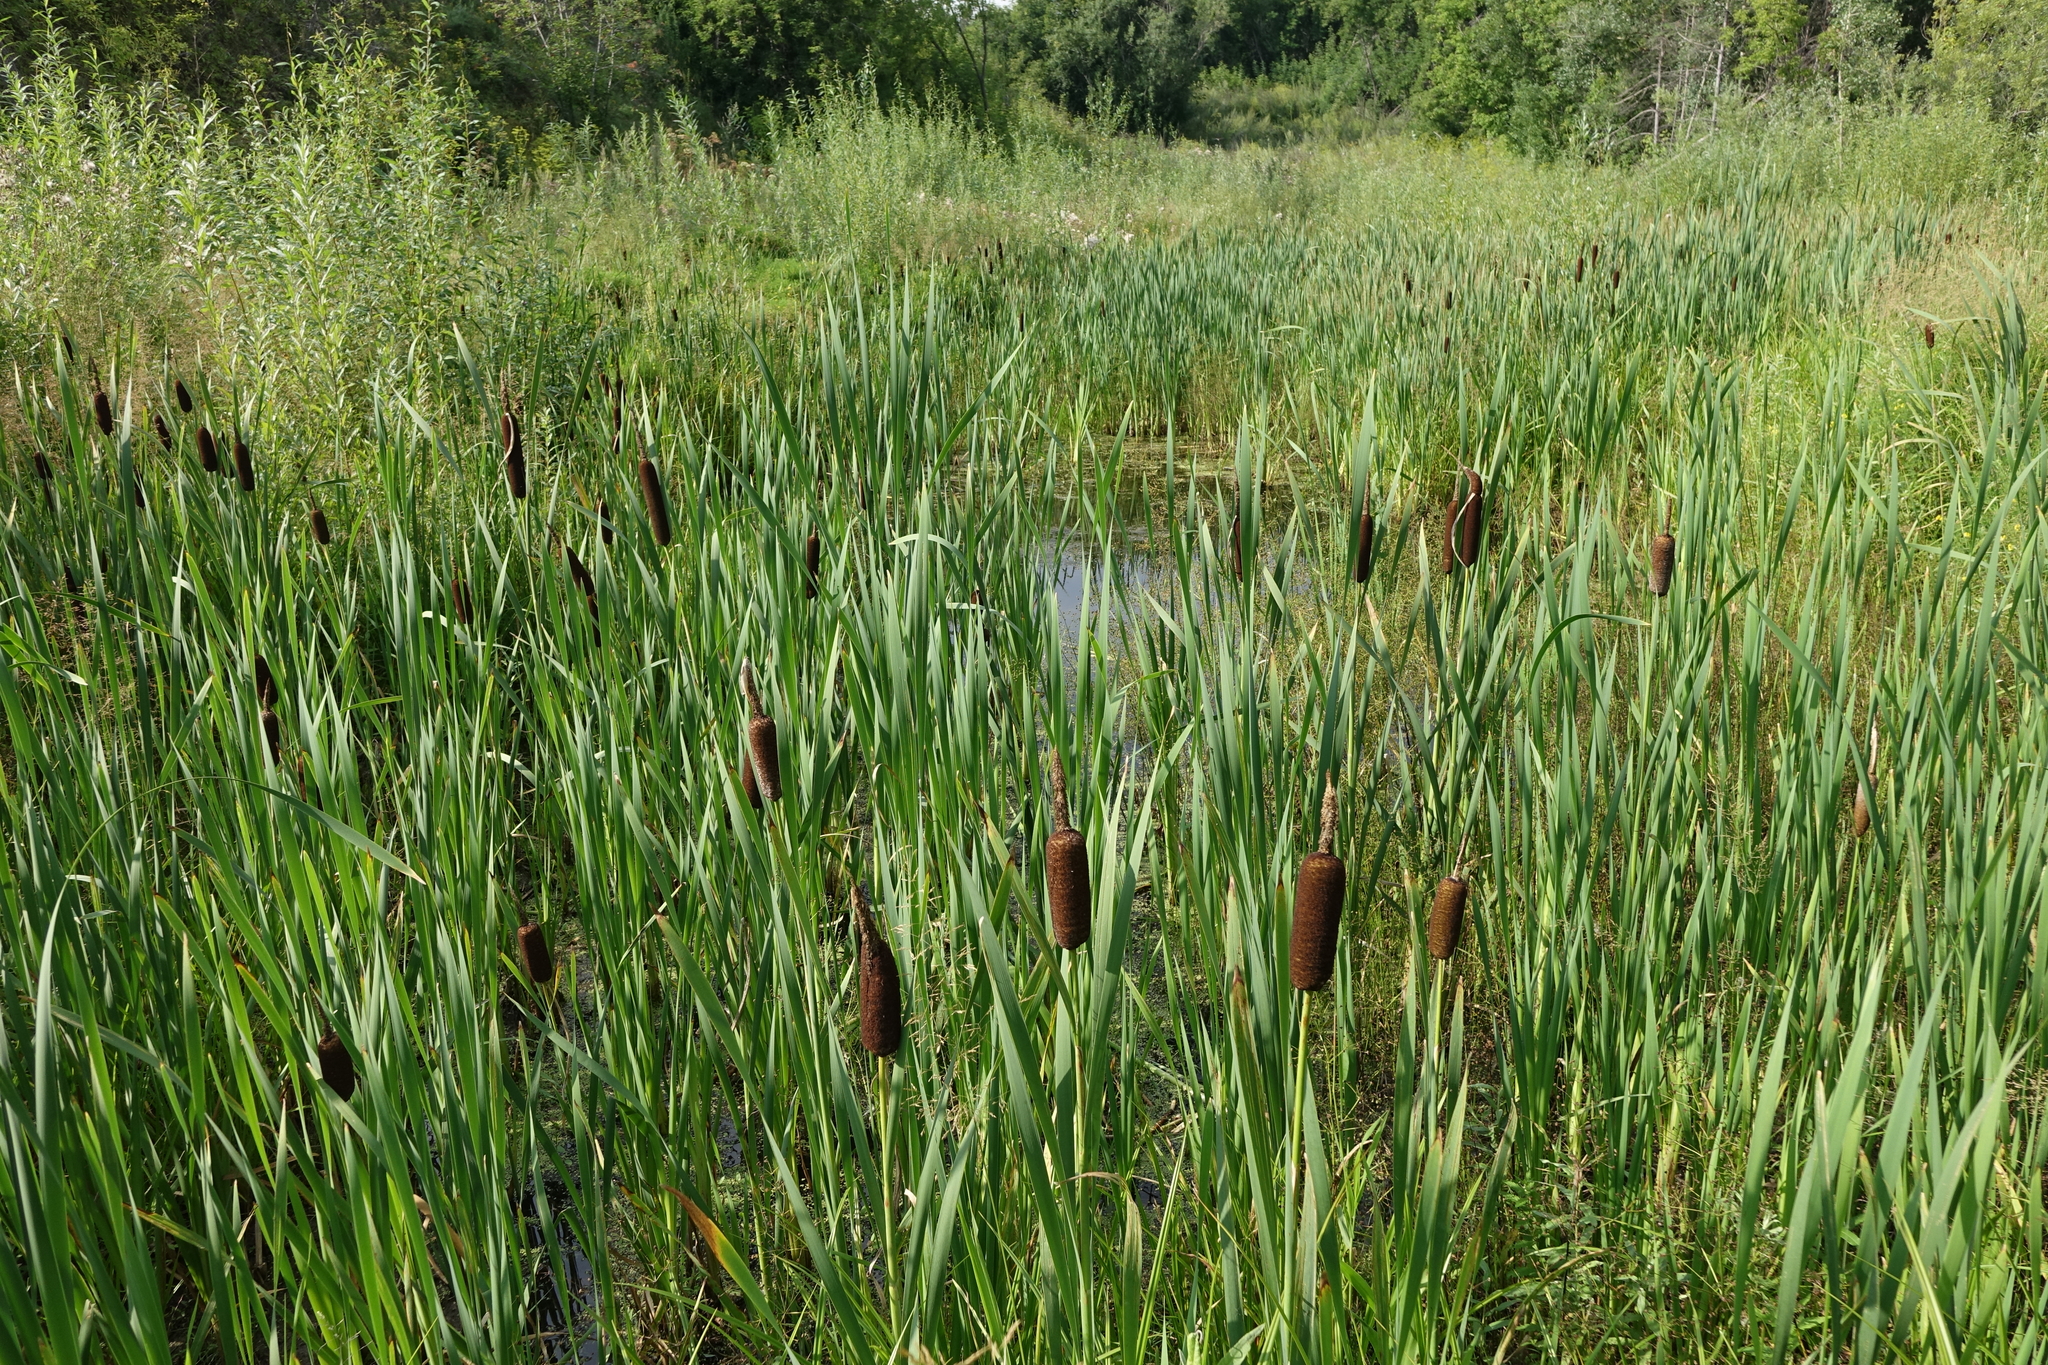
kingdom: Plantae
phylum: Tracheophyta
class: Liliopsida
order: Poales
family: Typhaceae
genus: Typha
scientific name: Typha latifolia
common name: Broadleaf cattail
